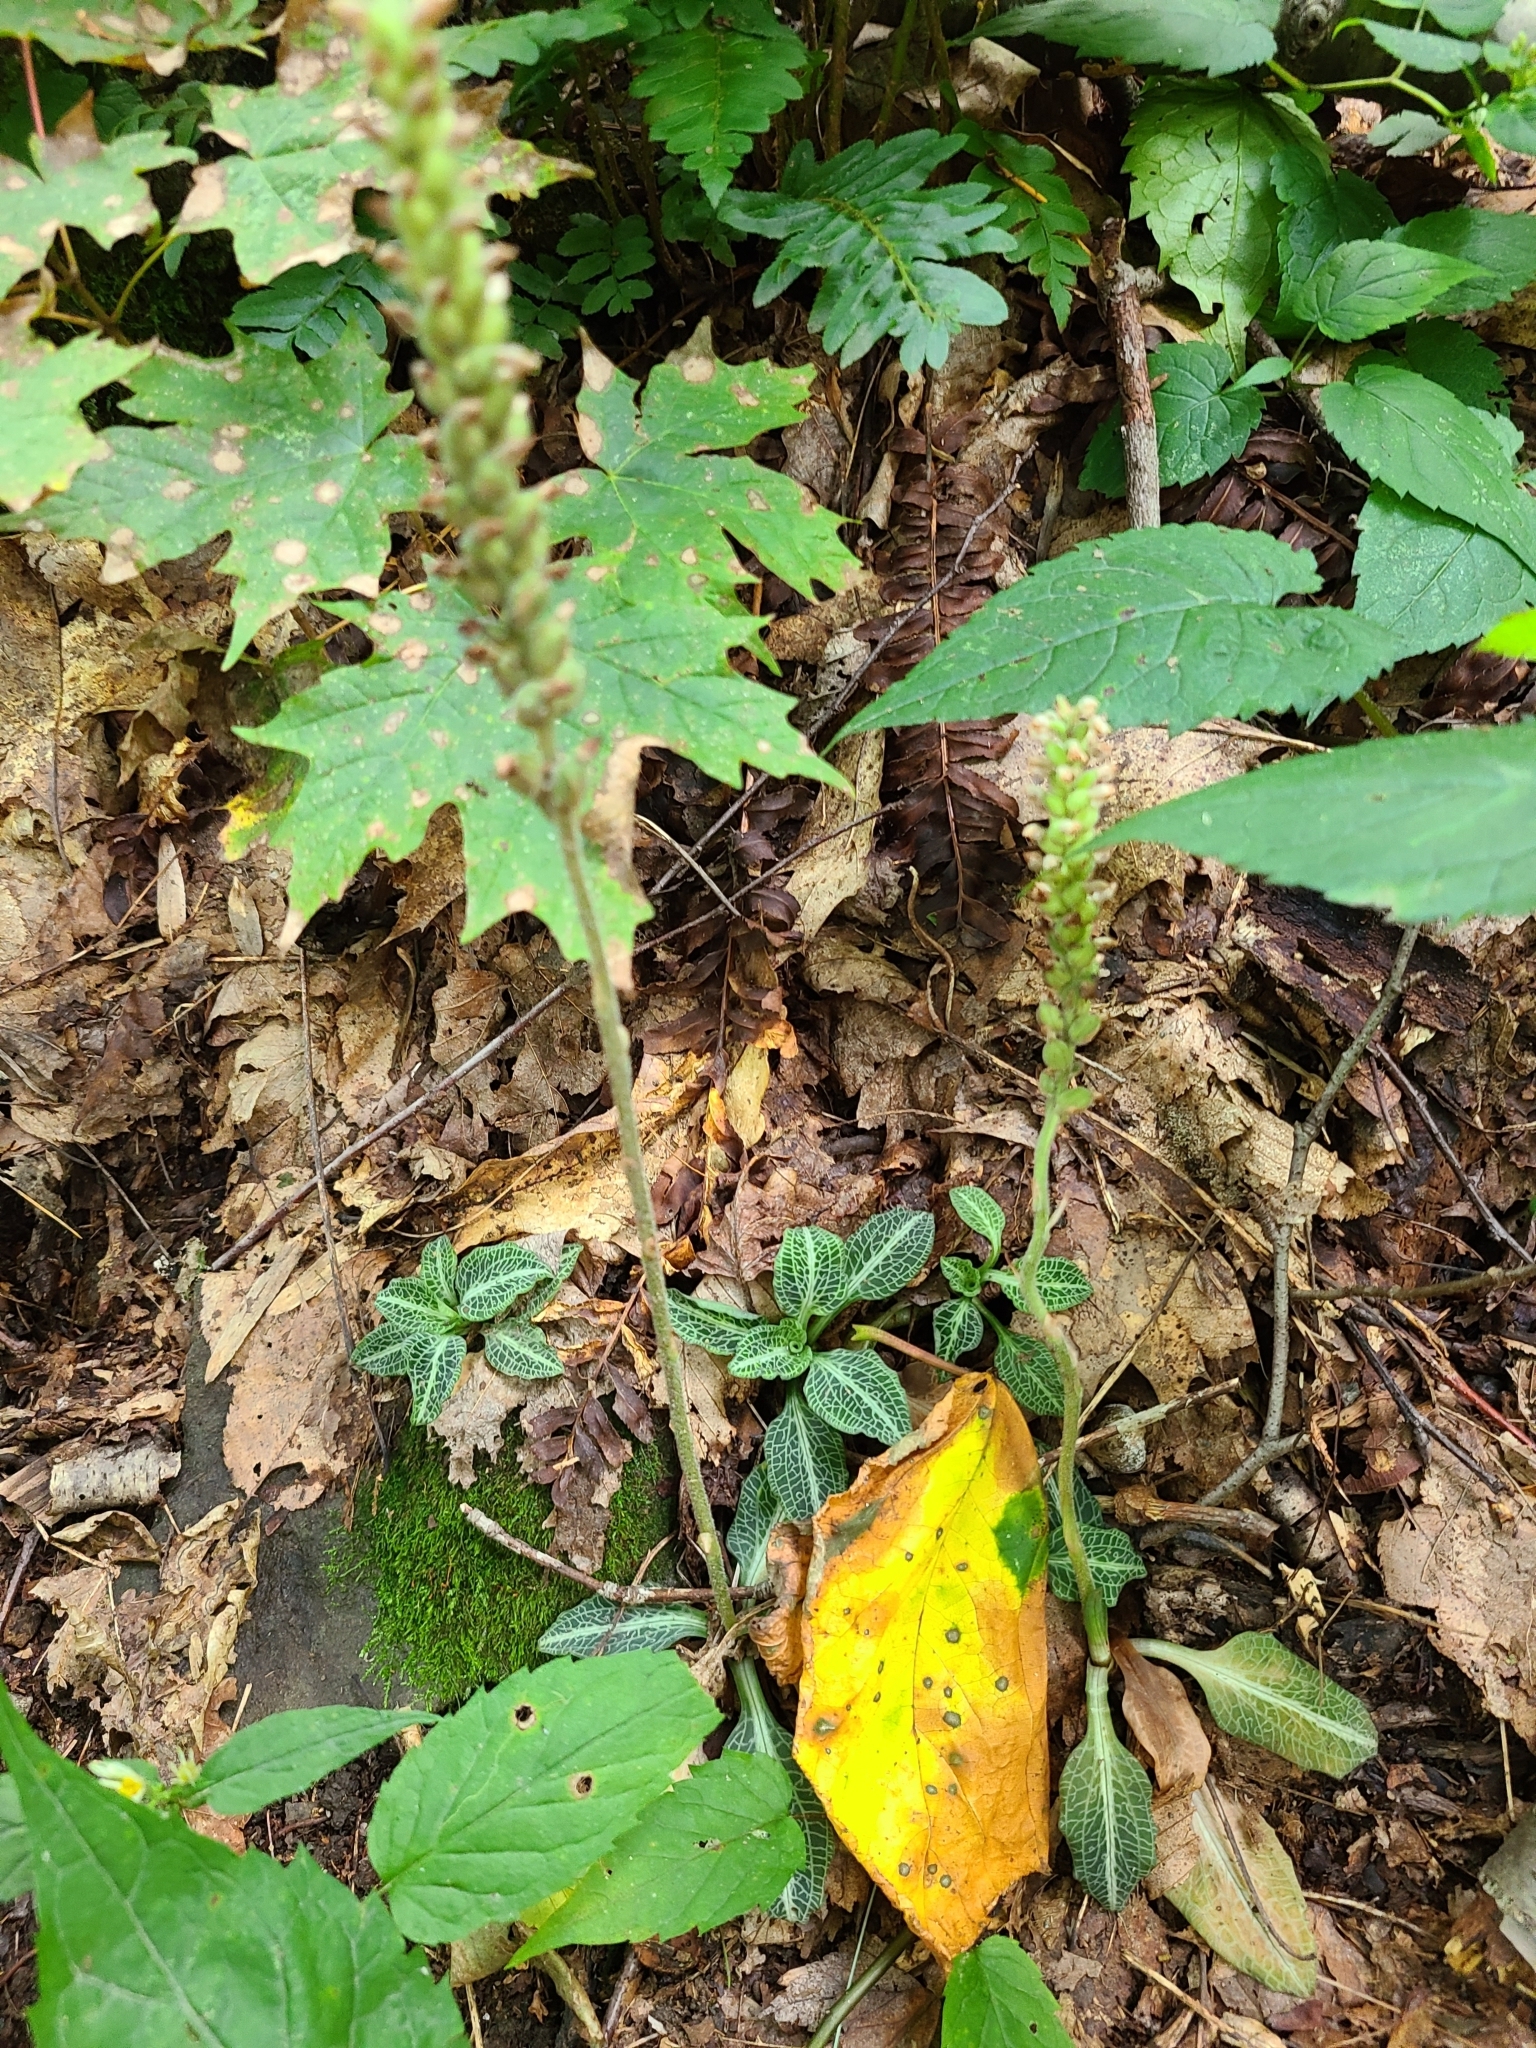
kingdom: Plantae
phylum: Tracheophyta
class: Liliopsida
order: Asparagales
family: Orchidaceae
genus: Goodyera
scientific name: Goodyera pubescens
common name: Downy rattlesnake-plantain
